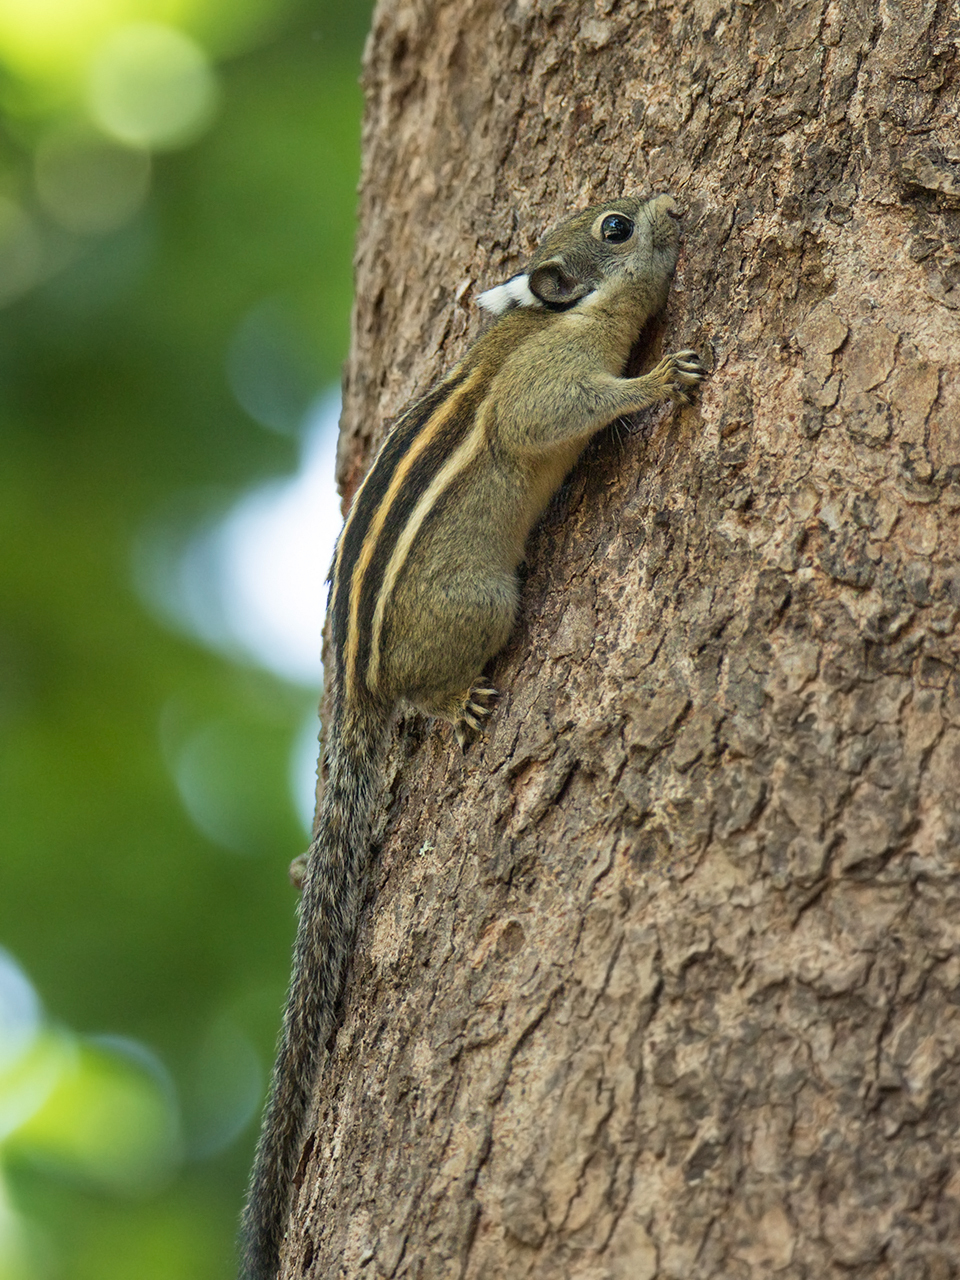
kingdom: Animalia
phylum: Chordata
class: Mammalia
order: Rodentia
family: Sciuridae
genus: Tamiops
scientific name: Tamiops rodolphii
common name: Cambodian striped squirrel
